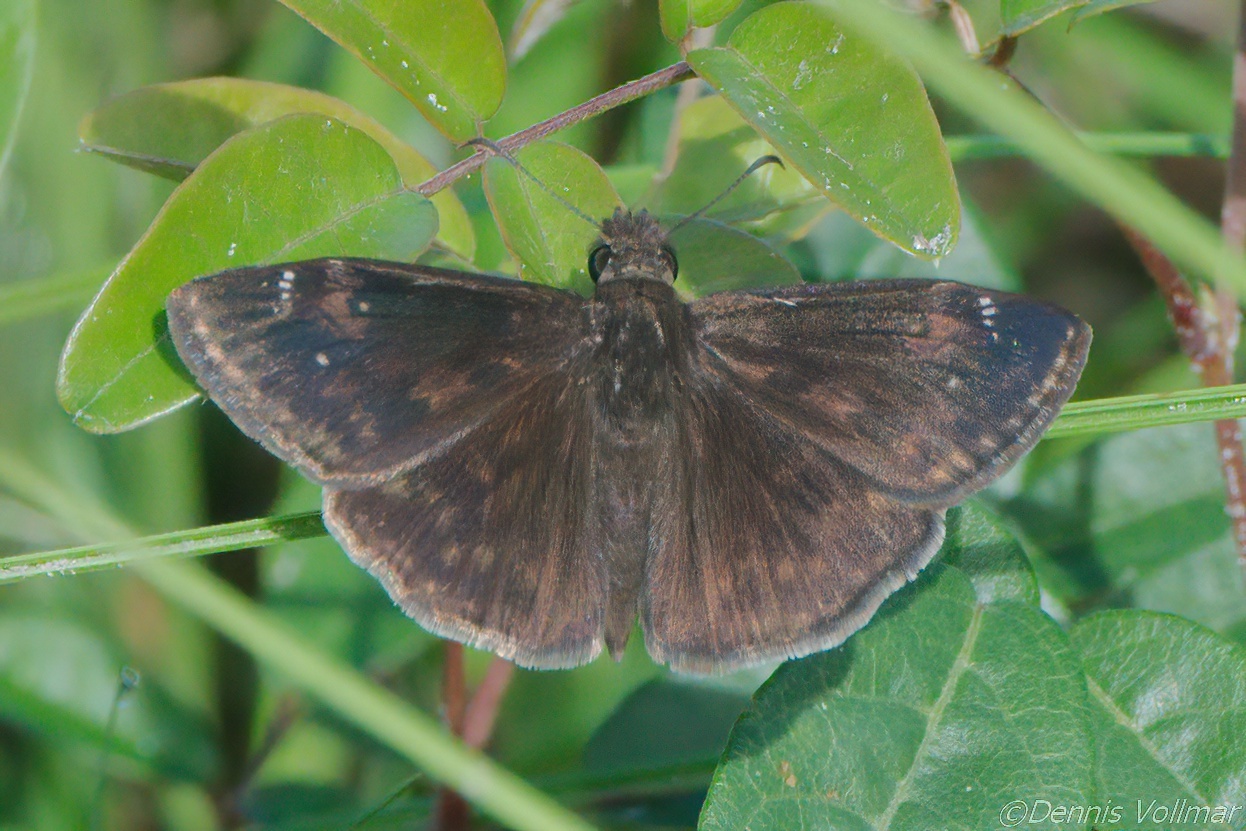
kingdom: Animalia
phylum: Arthropoda
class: Insecta
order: Lepidoptera
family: Hesperiidae
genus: Erynnis
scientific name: Erynnis zarucco
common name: Zarucco duskywing
